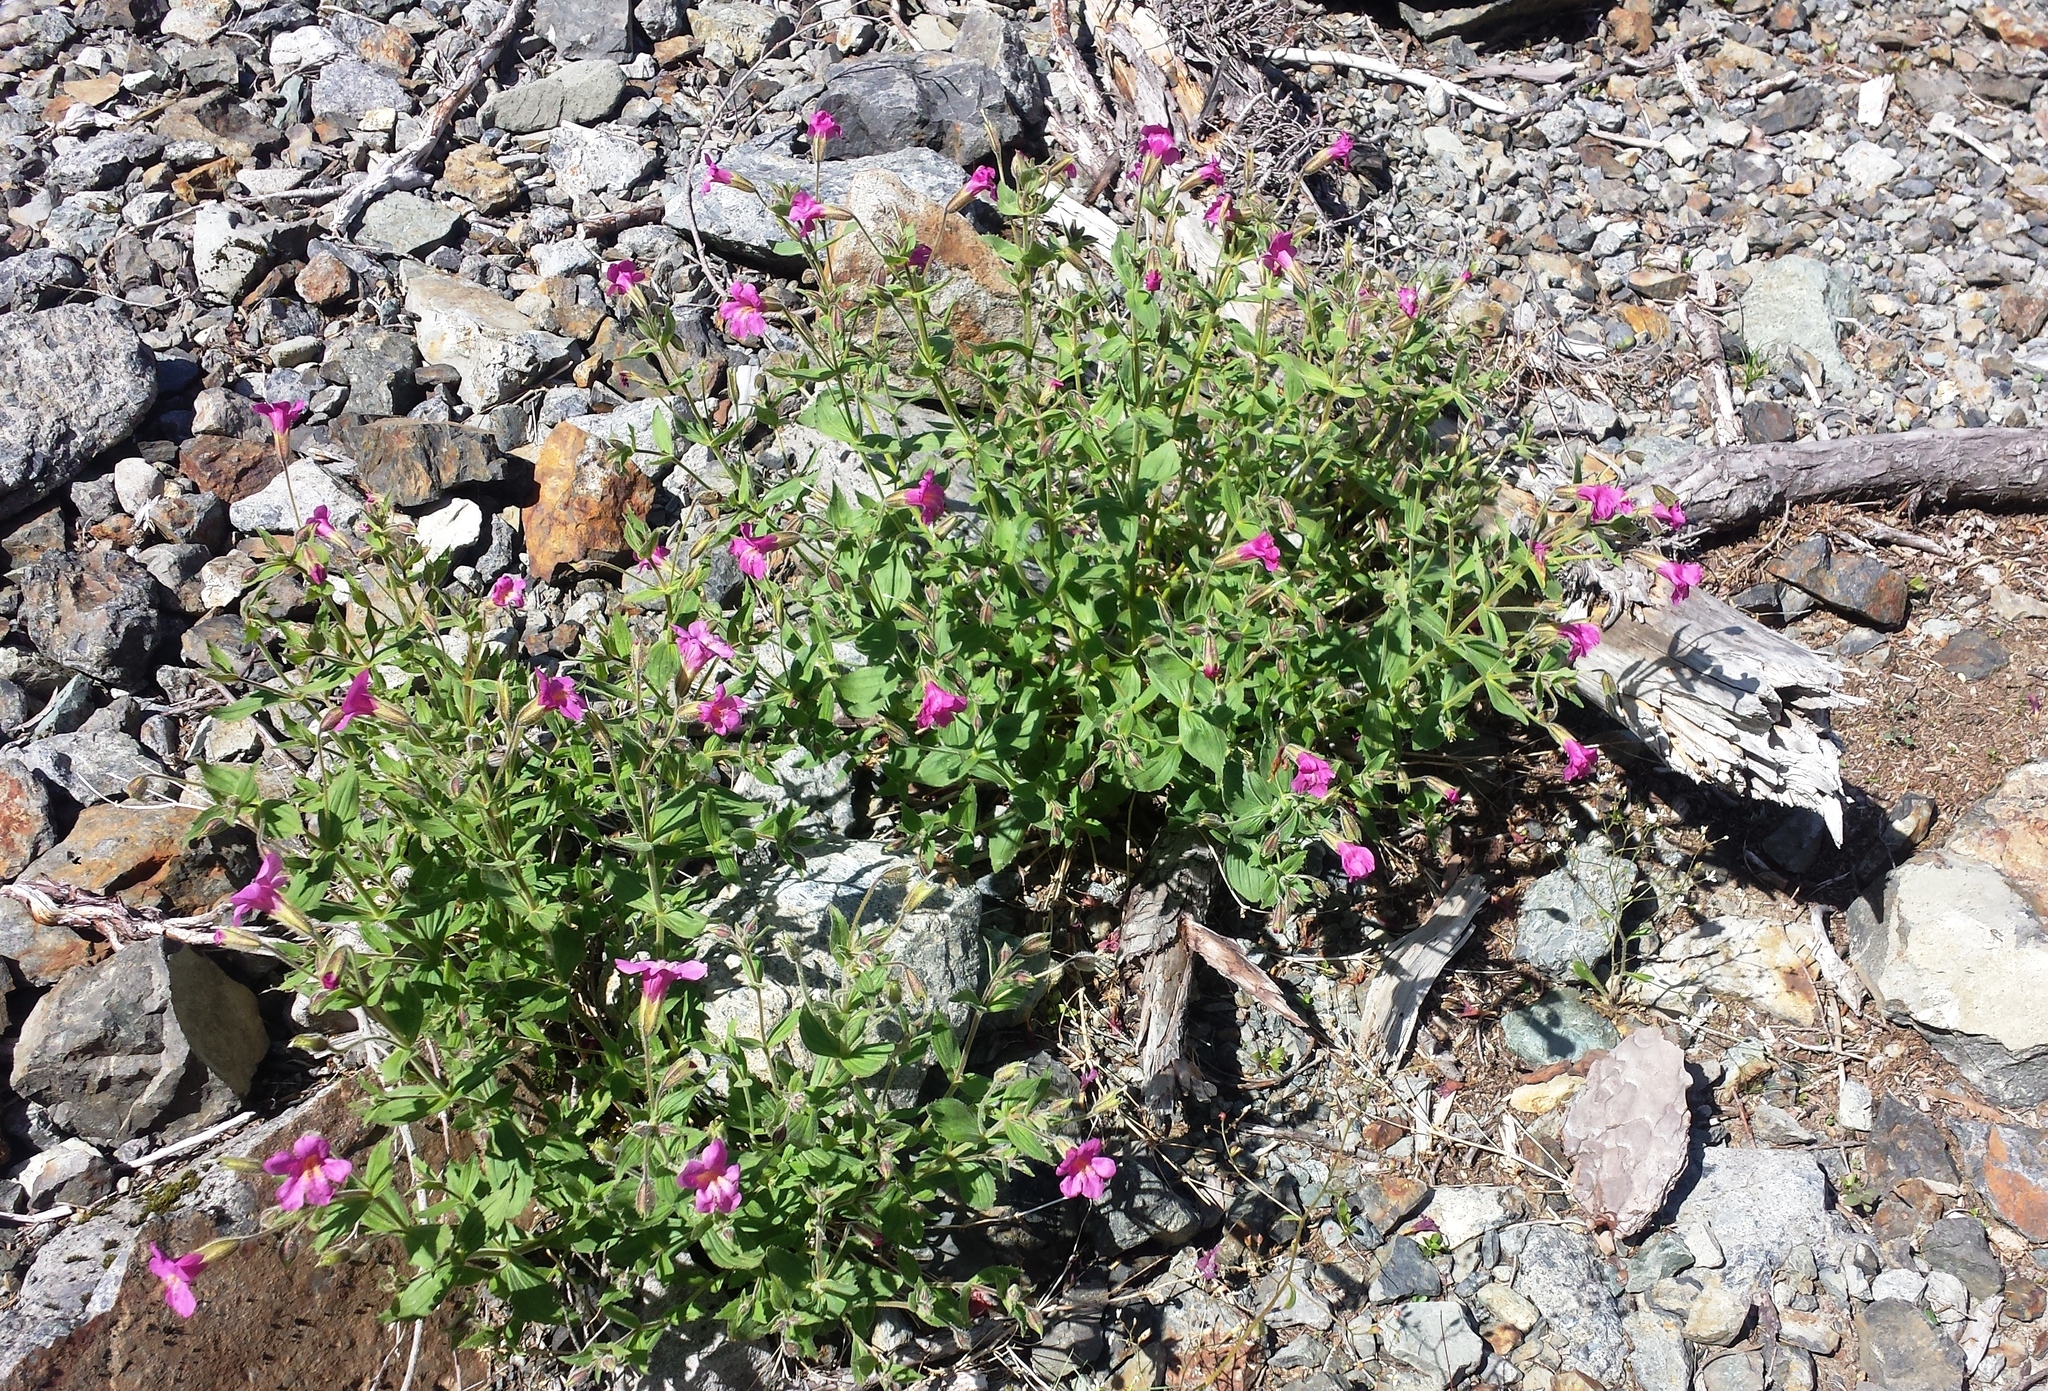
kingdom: Plantae
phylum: Tracheophyta
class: Magnoliopsida
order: Lamiales
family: Phrymaceae
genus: Erythranthe
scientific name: Erythranthe lewisii
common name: Lewis's monkey-flower
